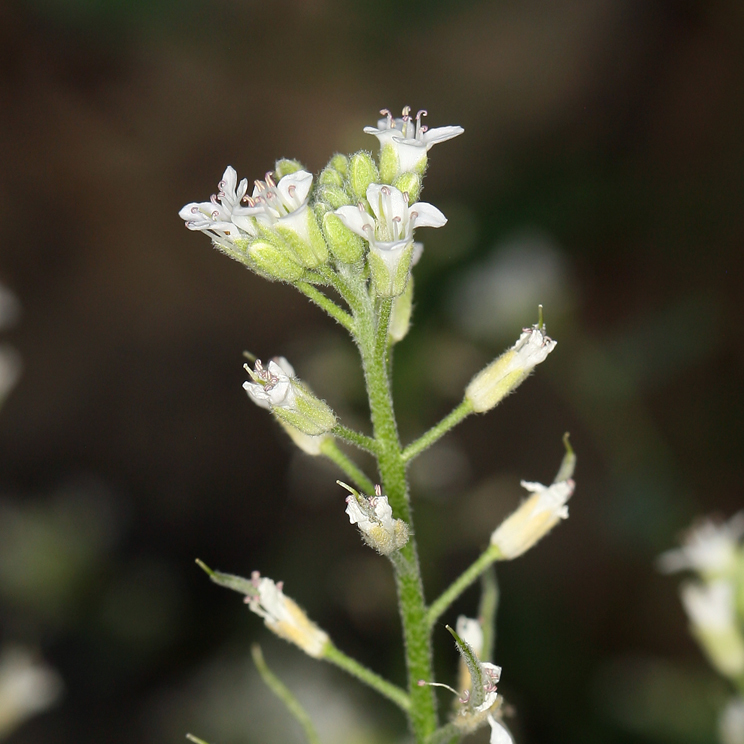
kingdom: Plantae
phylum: Tracheophyta
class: Magnoliopsida
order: Brassicales
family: Brassicaceae
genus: Halimolobos
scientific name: Halimolobos jaegeri
